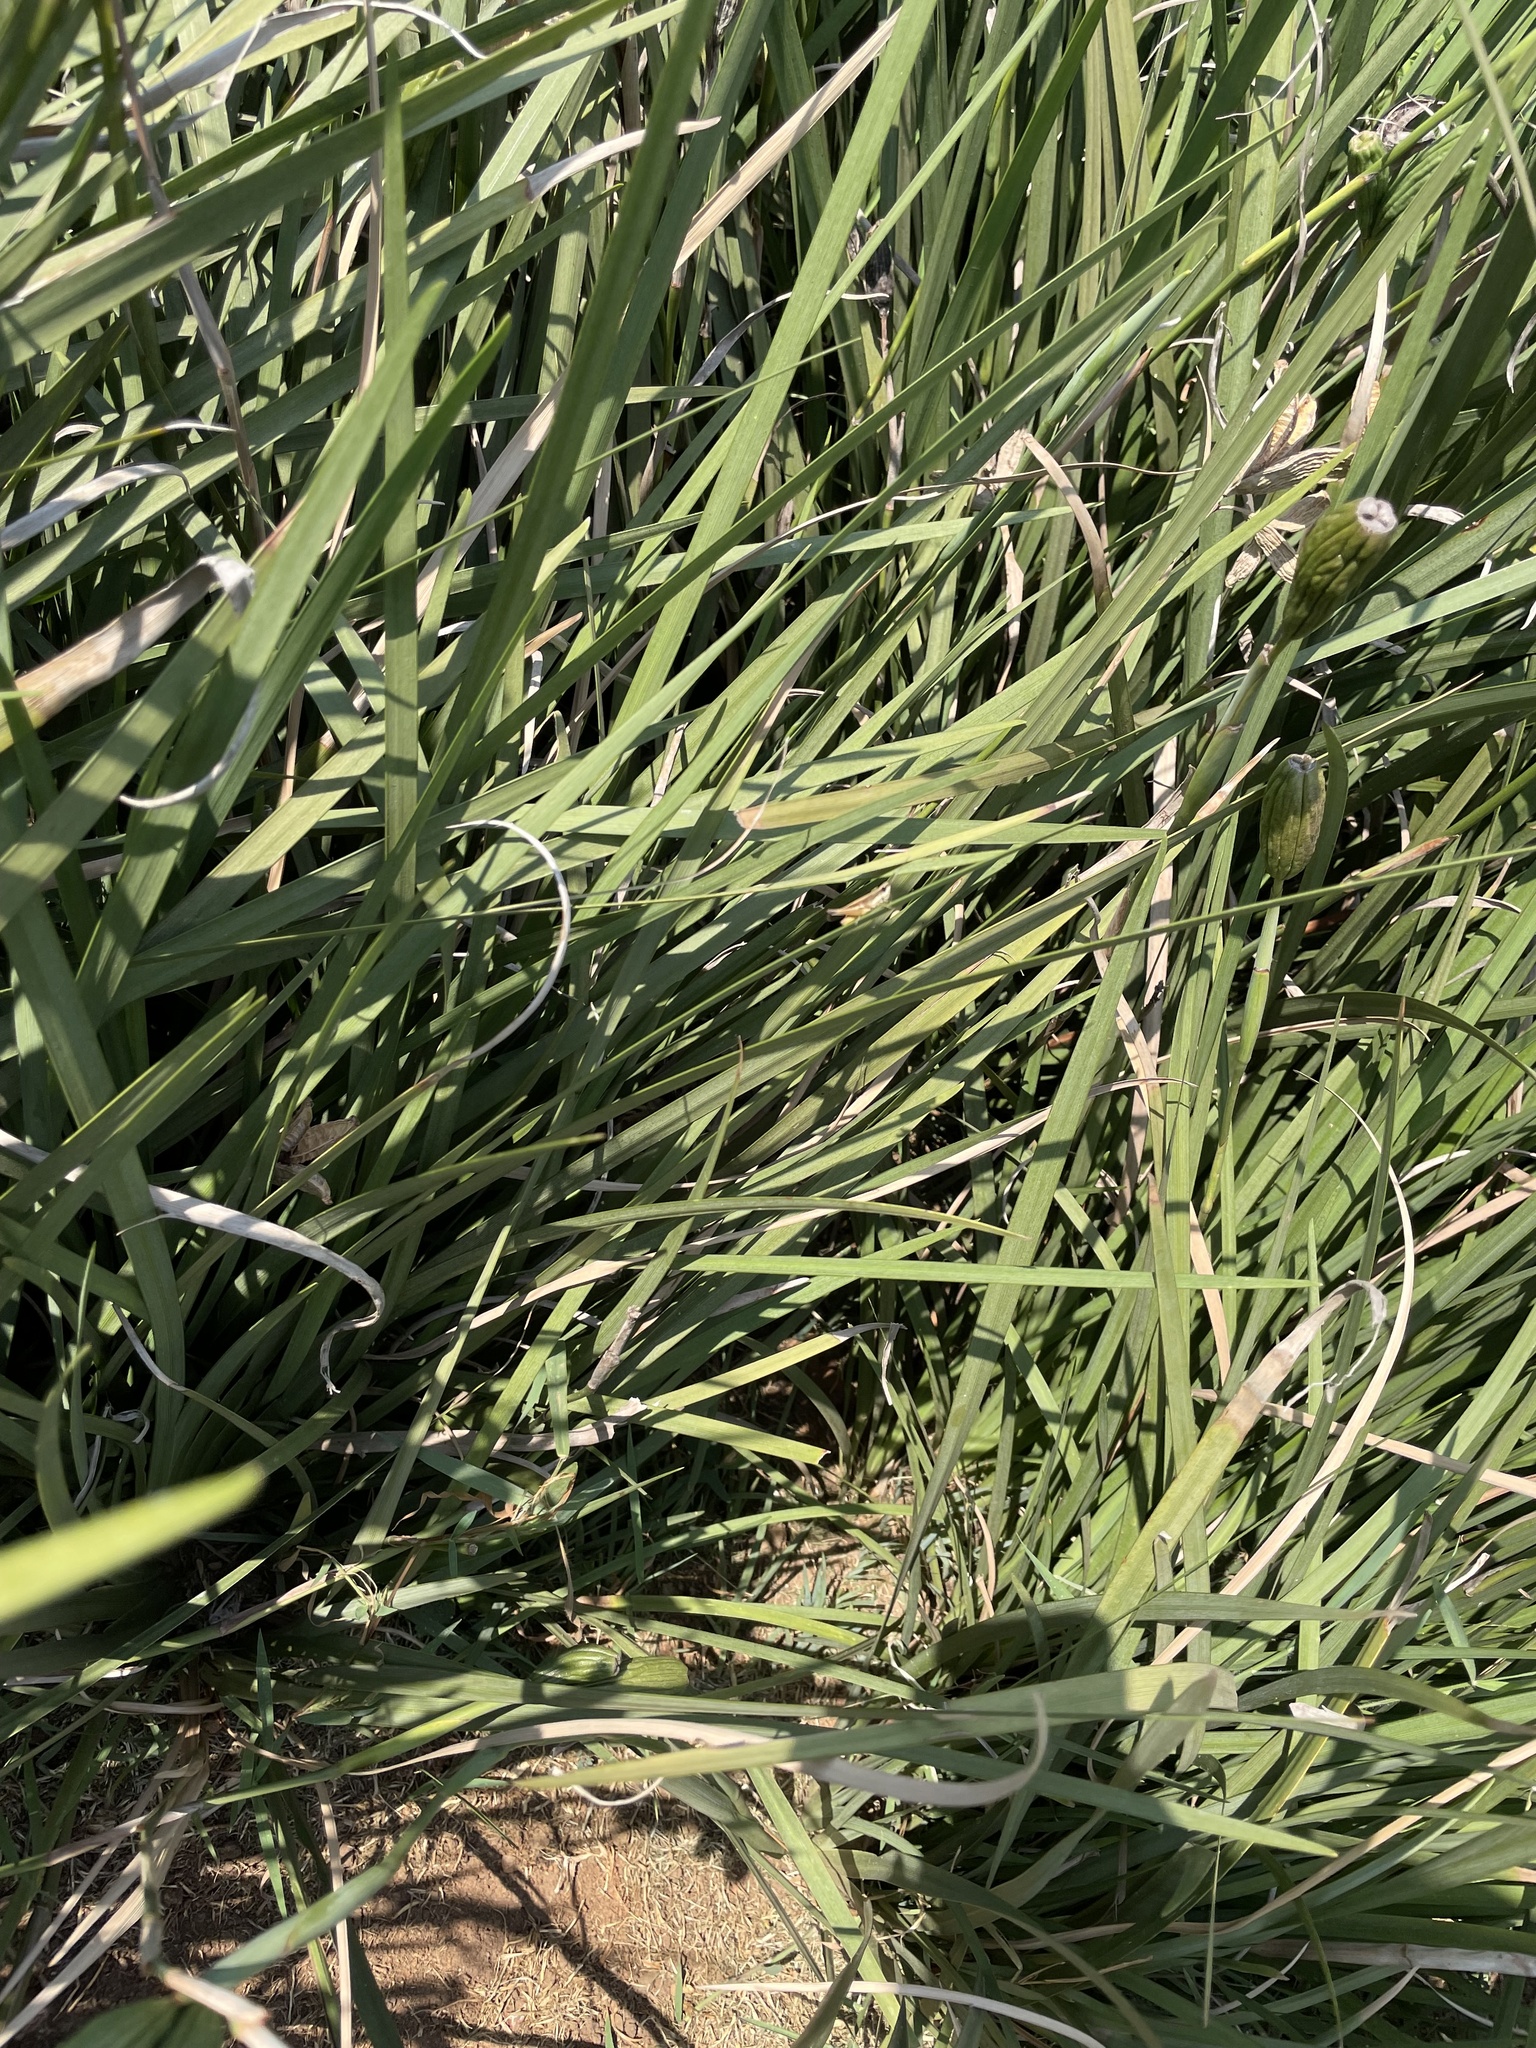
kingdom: Animalia
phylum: Arthropoda
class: Insecta
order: Orthoptera
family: Acrididae
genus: Coryphosima
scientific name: Coryphosima stenoptera
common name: African common grasshopper
